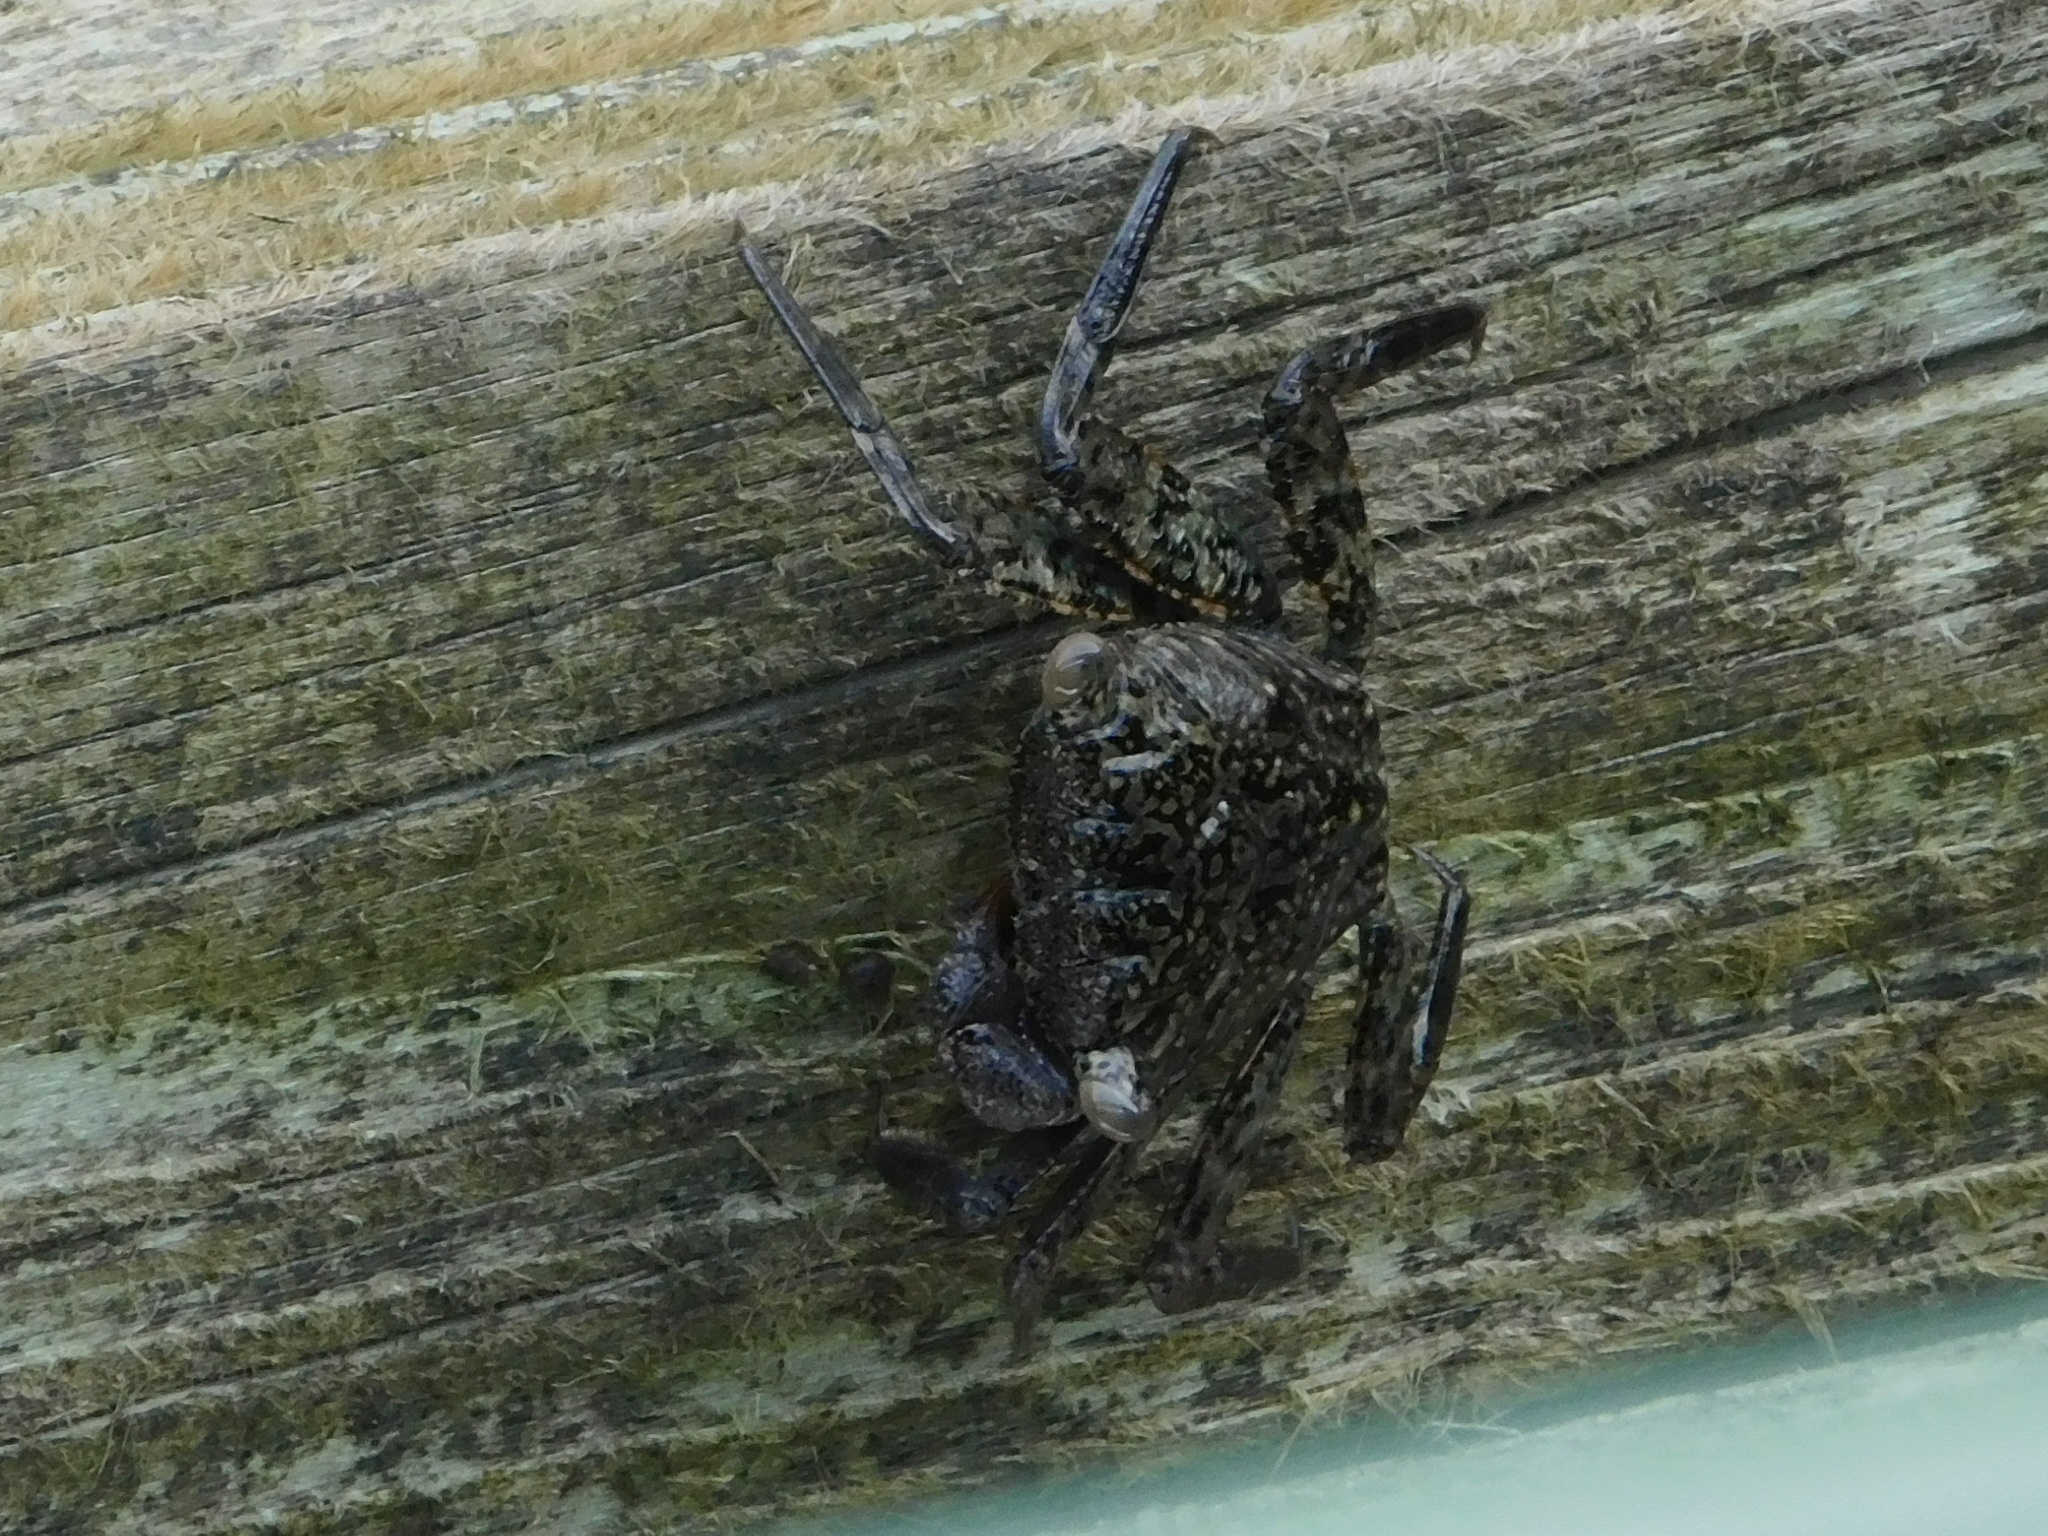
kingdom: Animalia
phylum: Arthropoda
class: Malacostraca
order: Decapoda
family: Sesarmidae
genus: Aratus
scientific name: Aratus pisonii
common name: Mangrove crab
